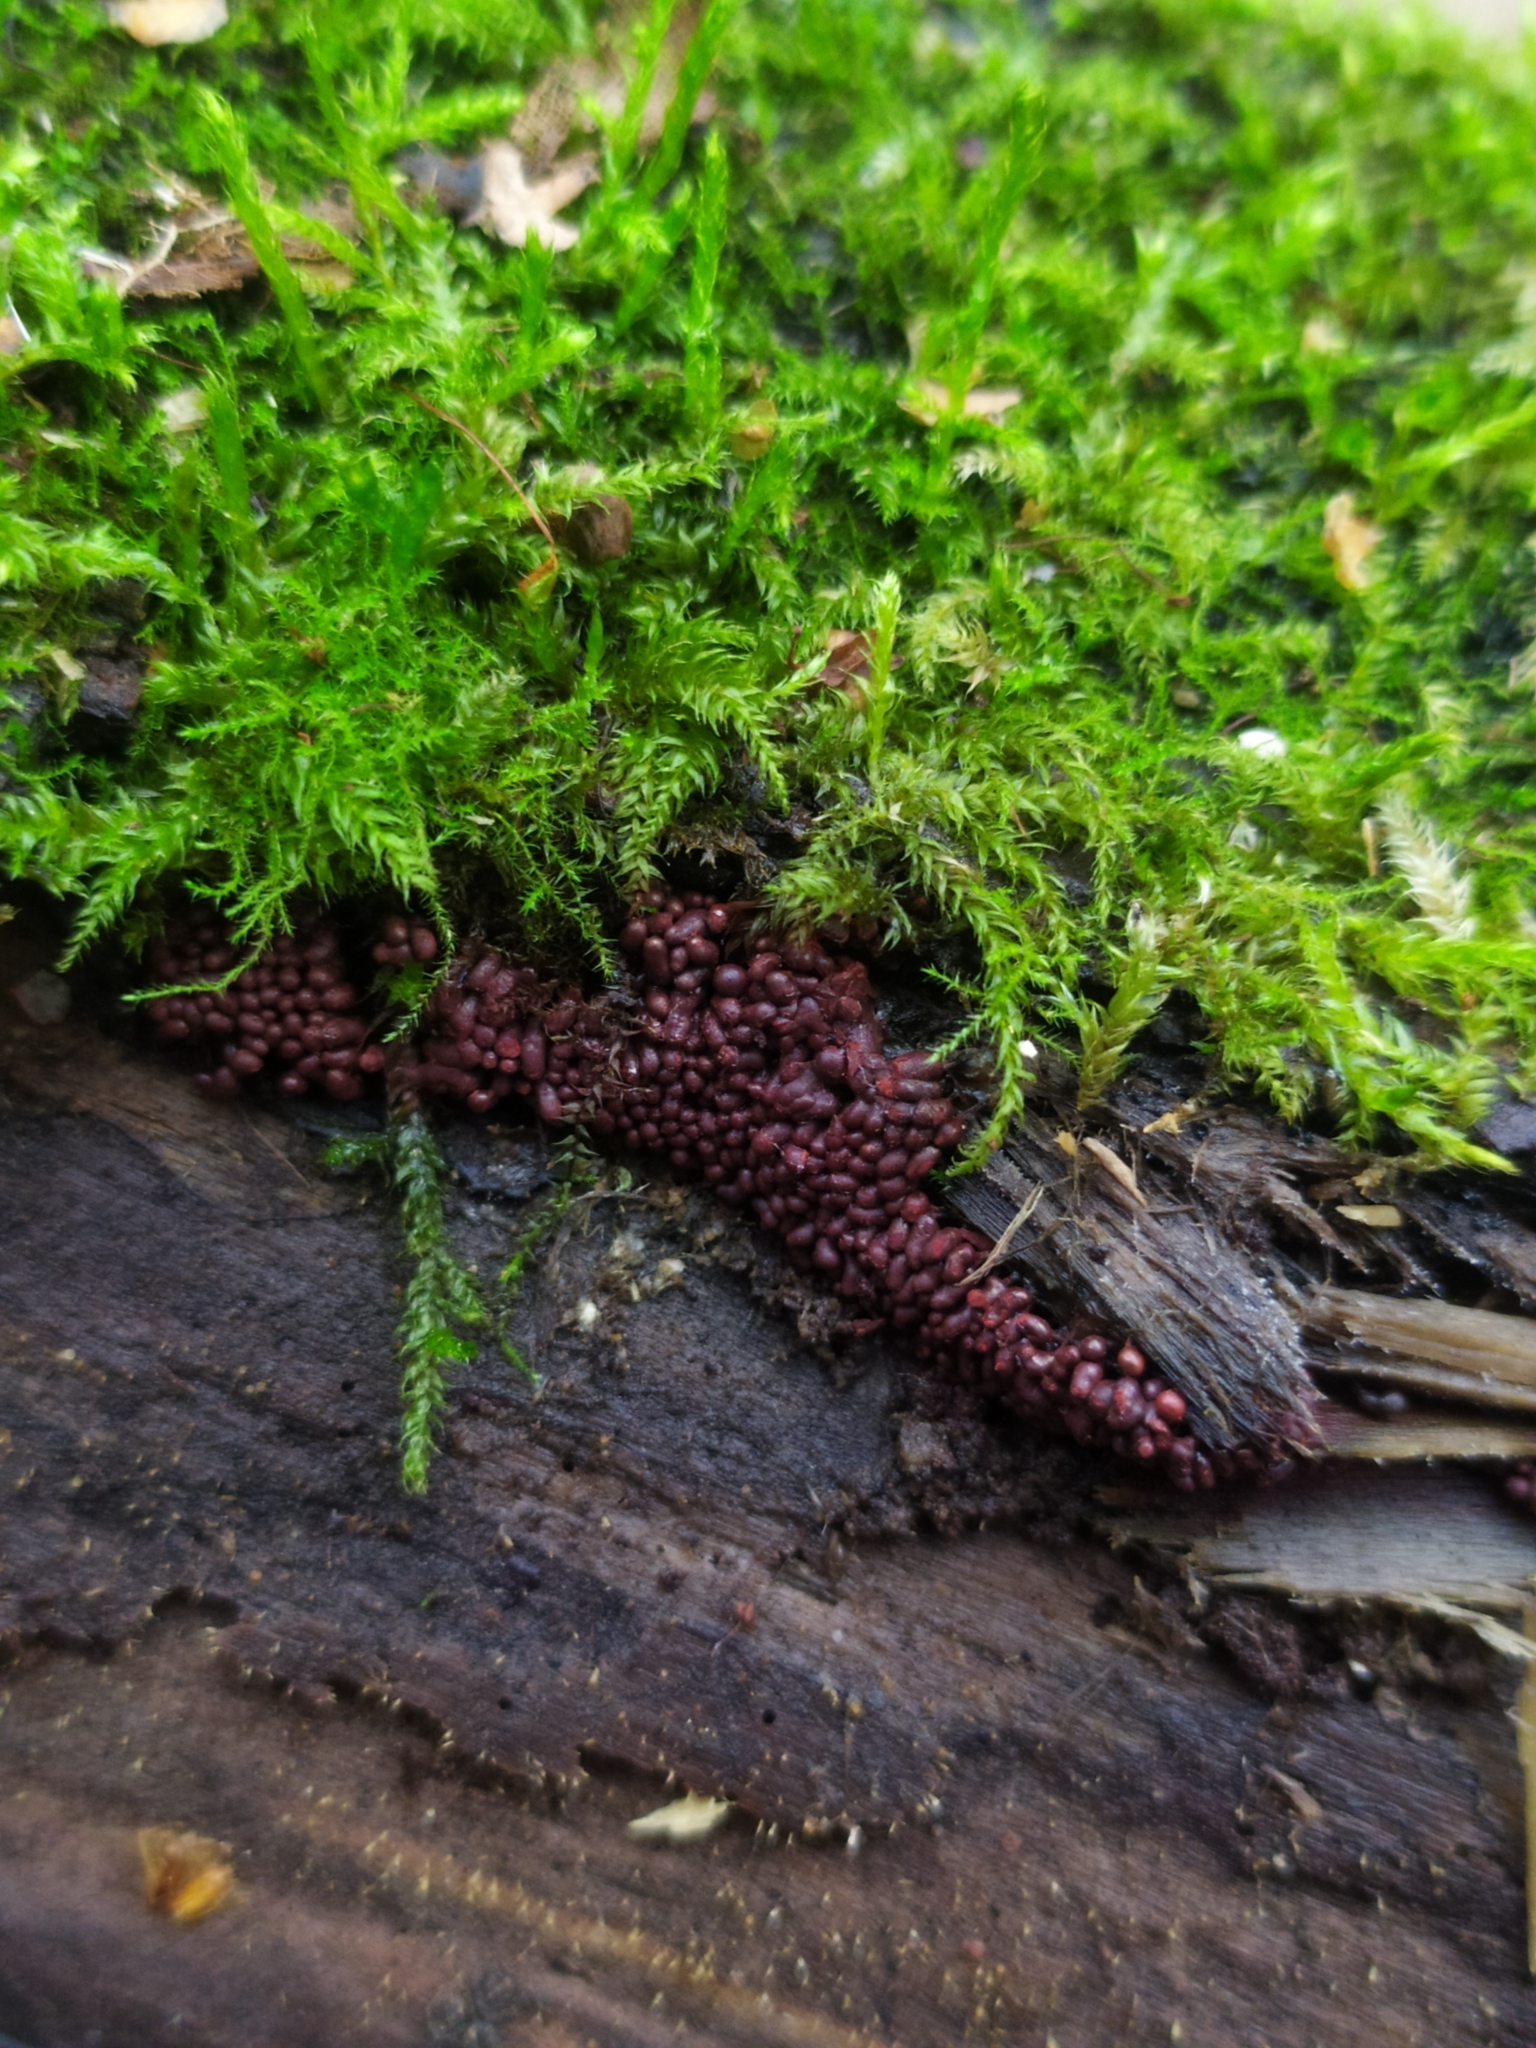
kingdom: Protozoa
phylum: Mycetozoa
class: Myxomycetes
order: Trichiales
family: Arcyriaceae
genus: Arcyria
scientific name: Arcyria stipata
